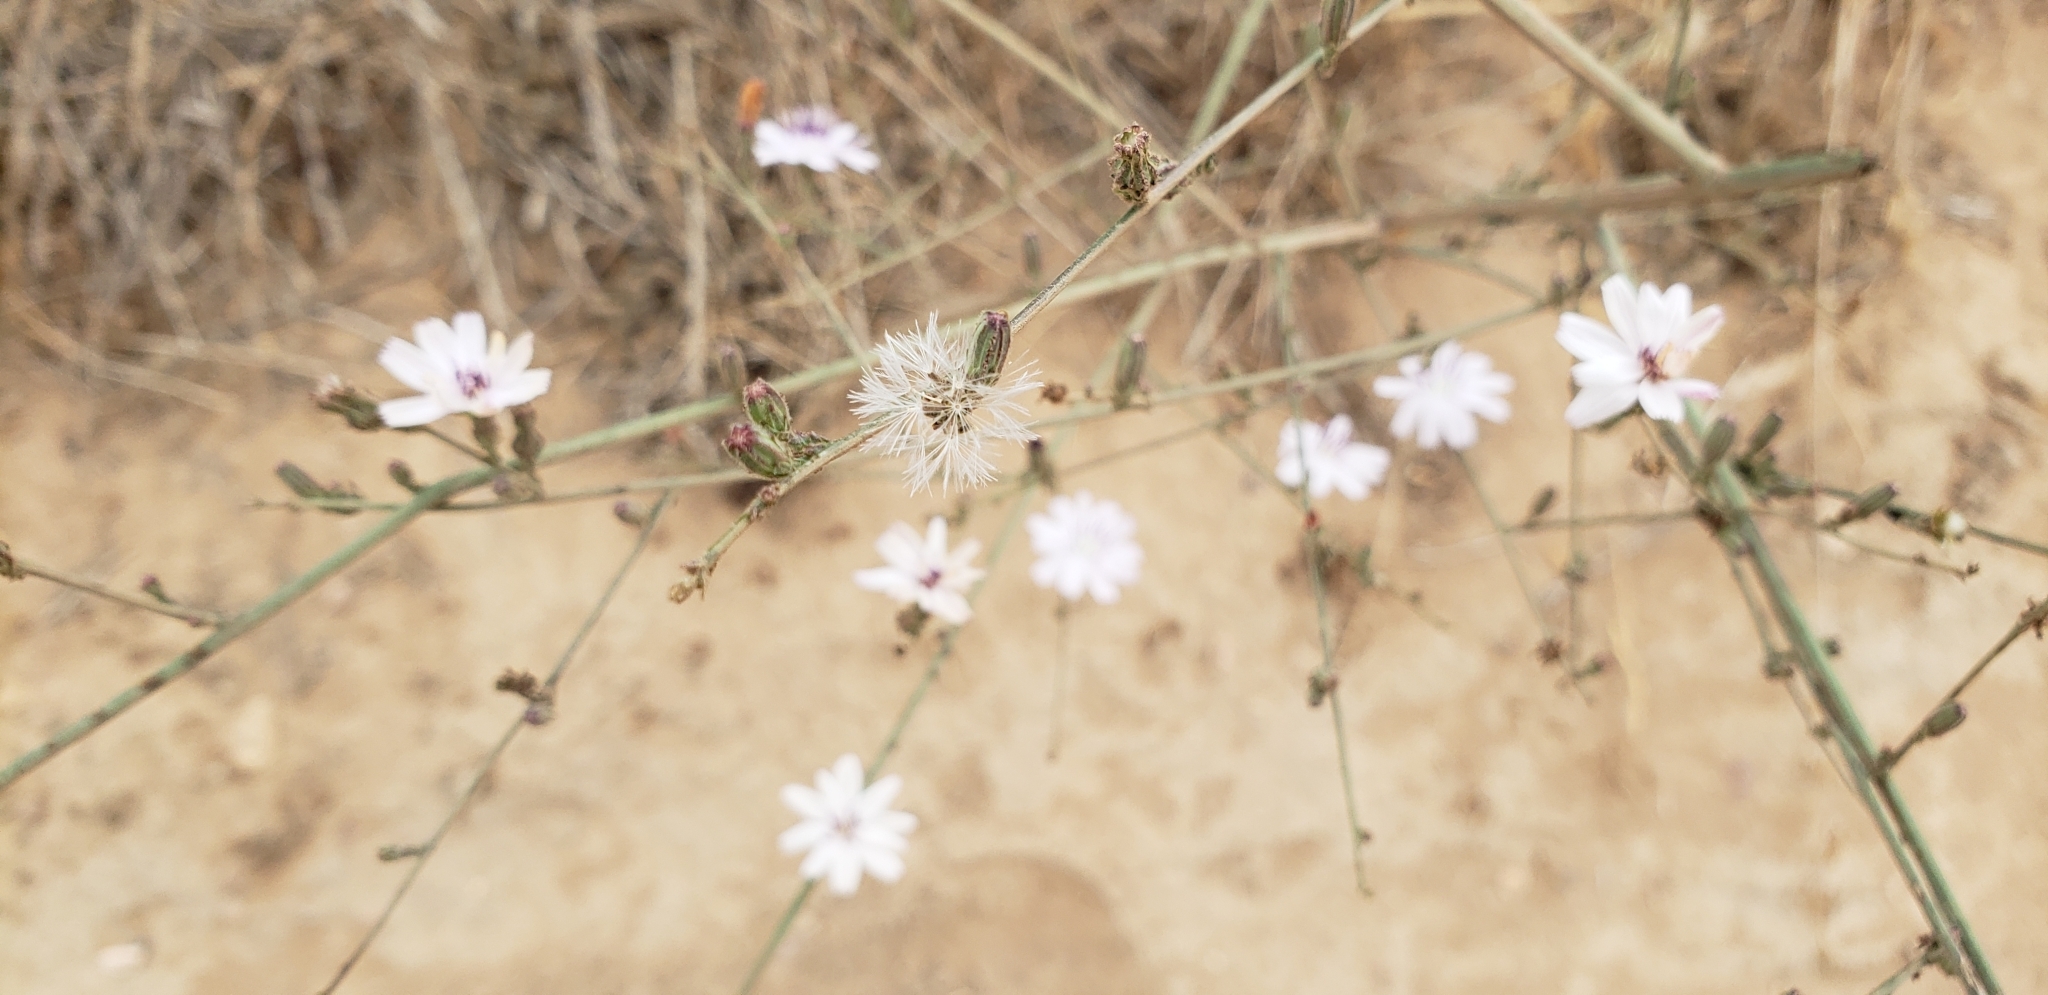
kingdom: Plantae
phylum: Tracheophyta
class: Magnoliopsida
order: Asterales
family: Asteraceae
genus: Stephanomeria
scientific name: Stephanomeria diegensis
